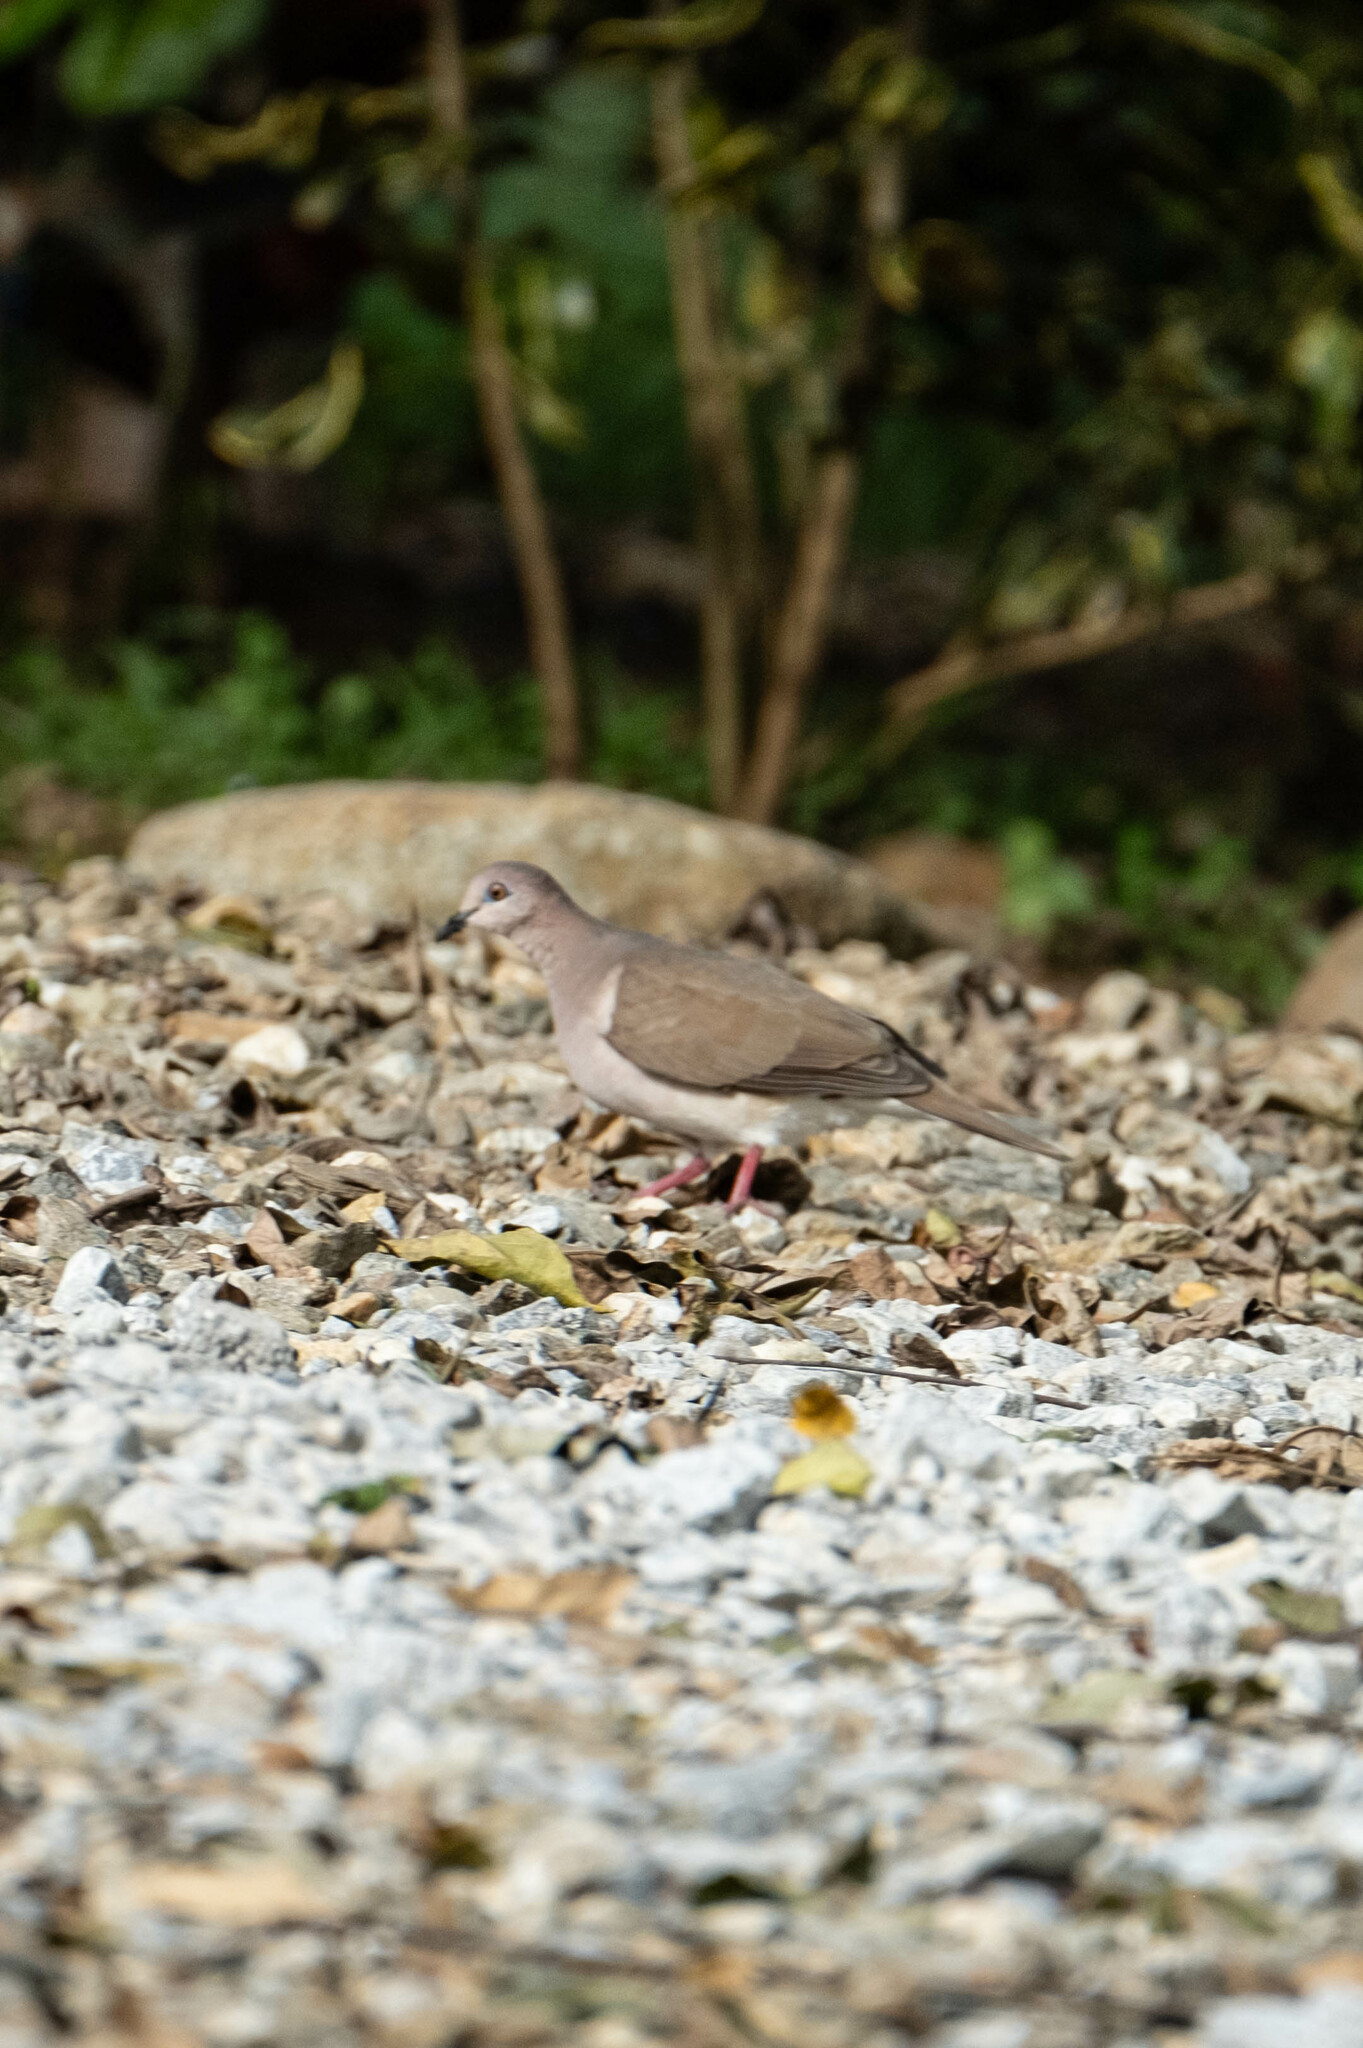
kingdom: Animalia
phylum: Chordata
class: Aves
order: Columbiformes
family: Columbidae
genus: Leptotila
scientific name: Leptotila verreauxi
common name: White-tipped dove
